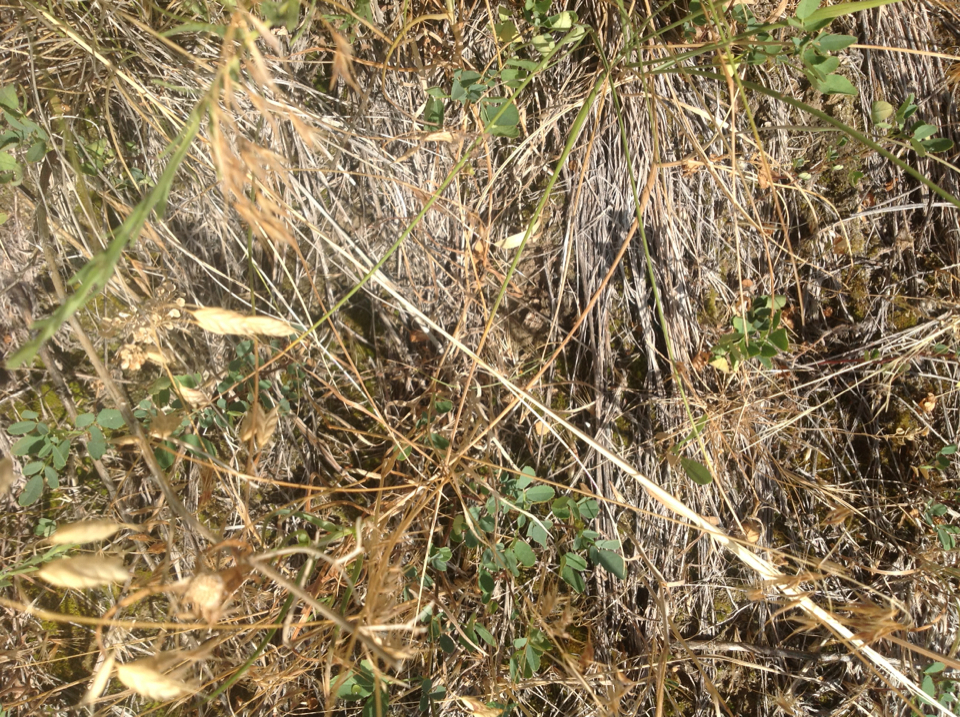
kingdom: Animalia
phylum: Chordata
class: Amphibia
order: Anura
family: Bufonidae
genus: Anaxyrus
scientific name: Anaxyrus cognatus
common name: Great plains toad
